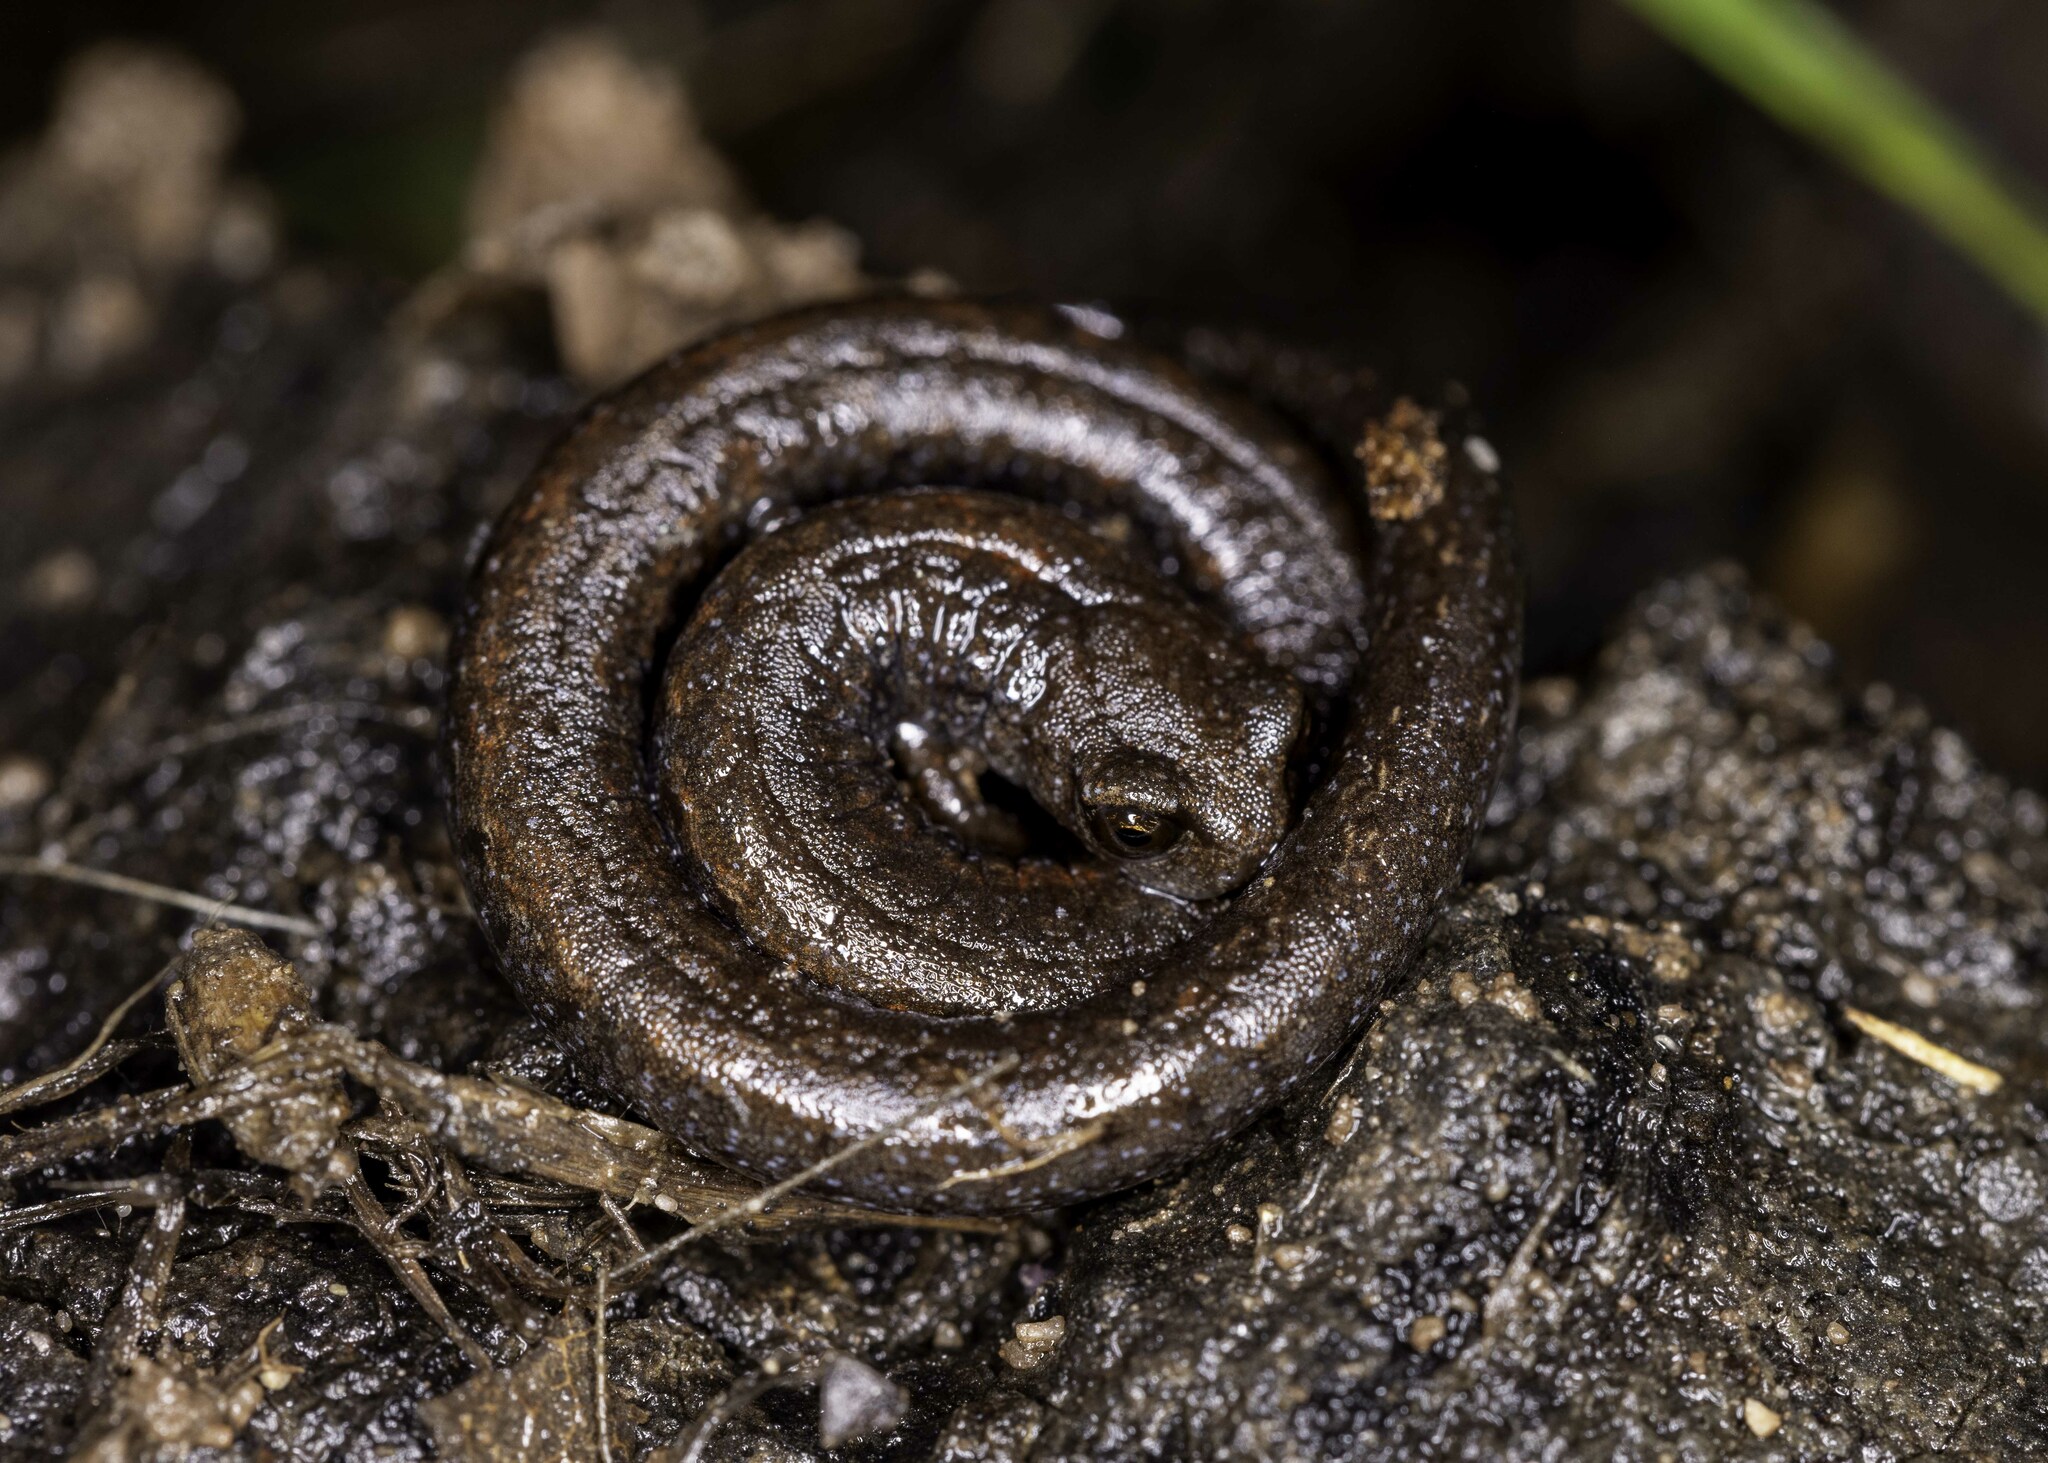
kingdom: Animalia
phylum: Chordata
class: Amphibia
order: Caudata
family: Plethodontidae
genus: Batrachoseps
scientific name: Batrachoseps nigriventris
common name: Black-bellied slender salamander
